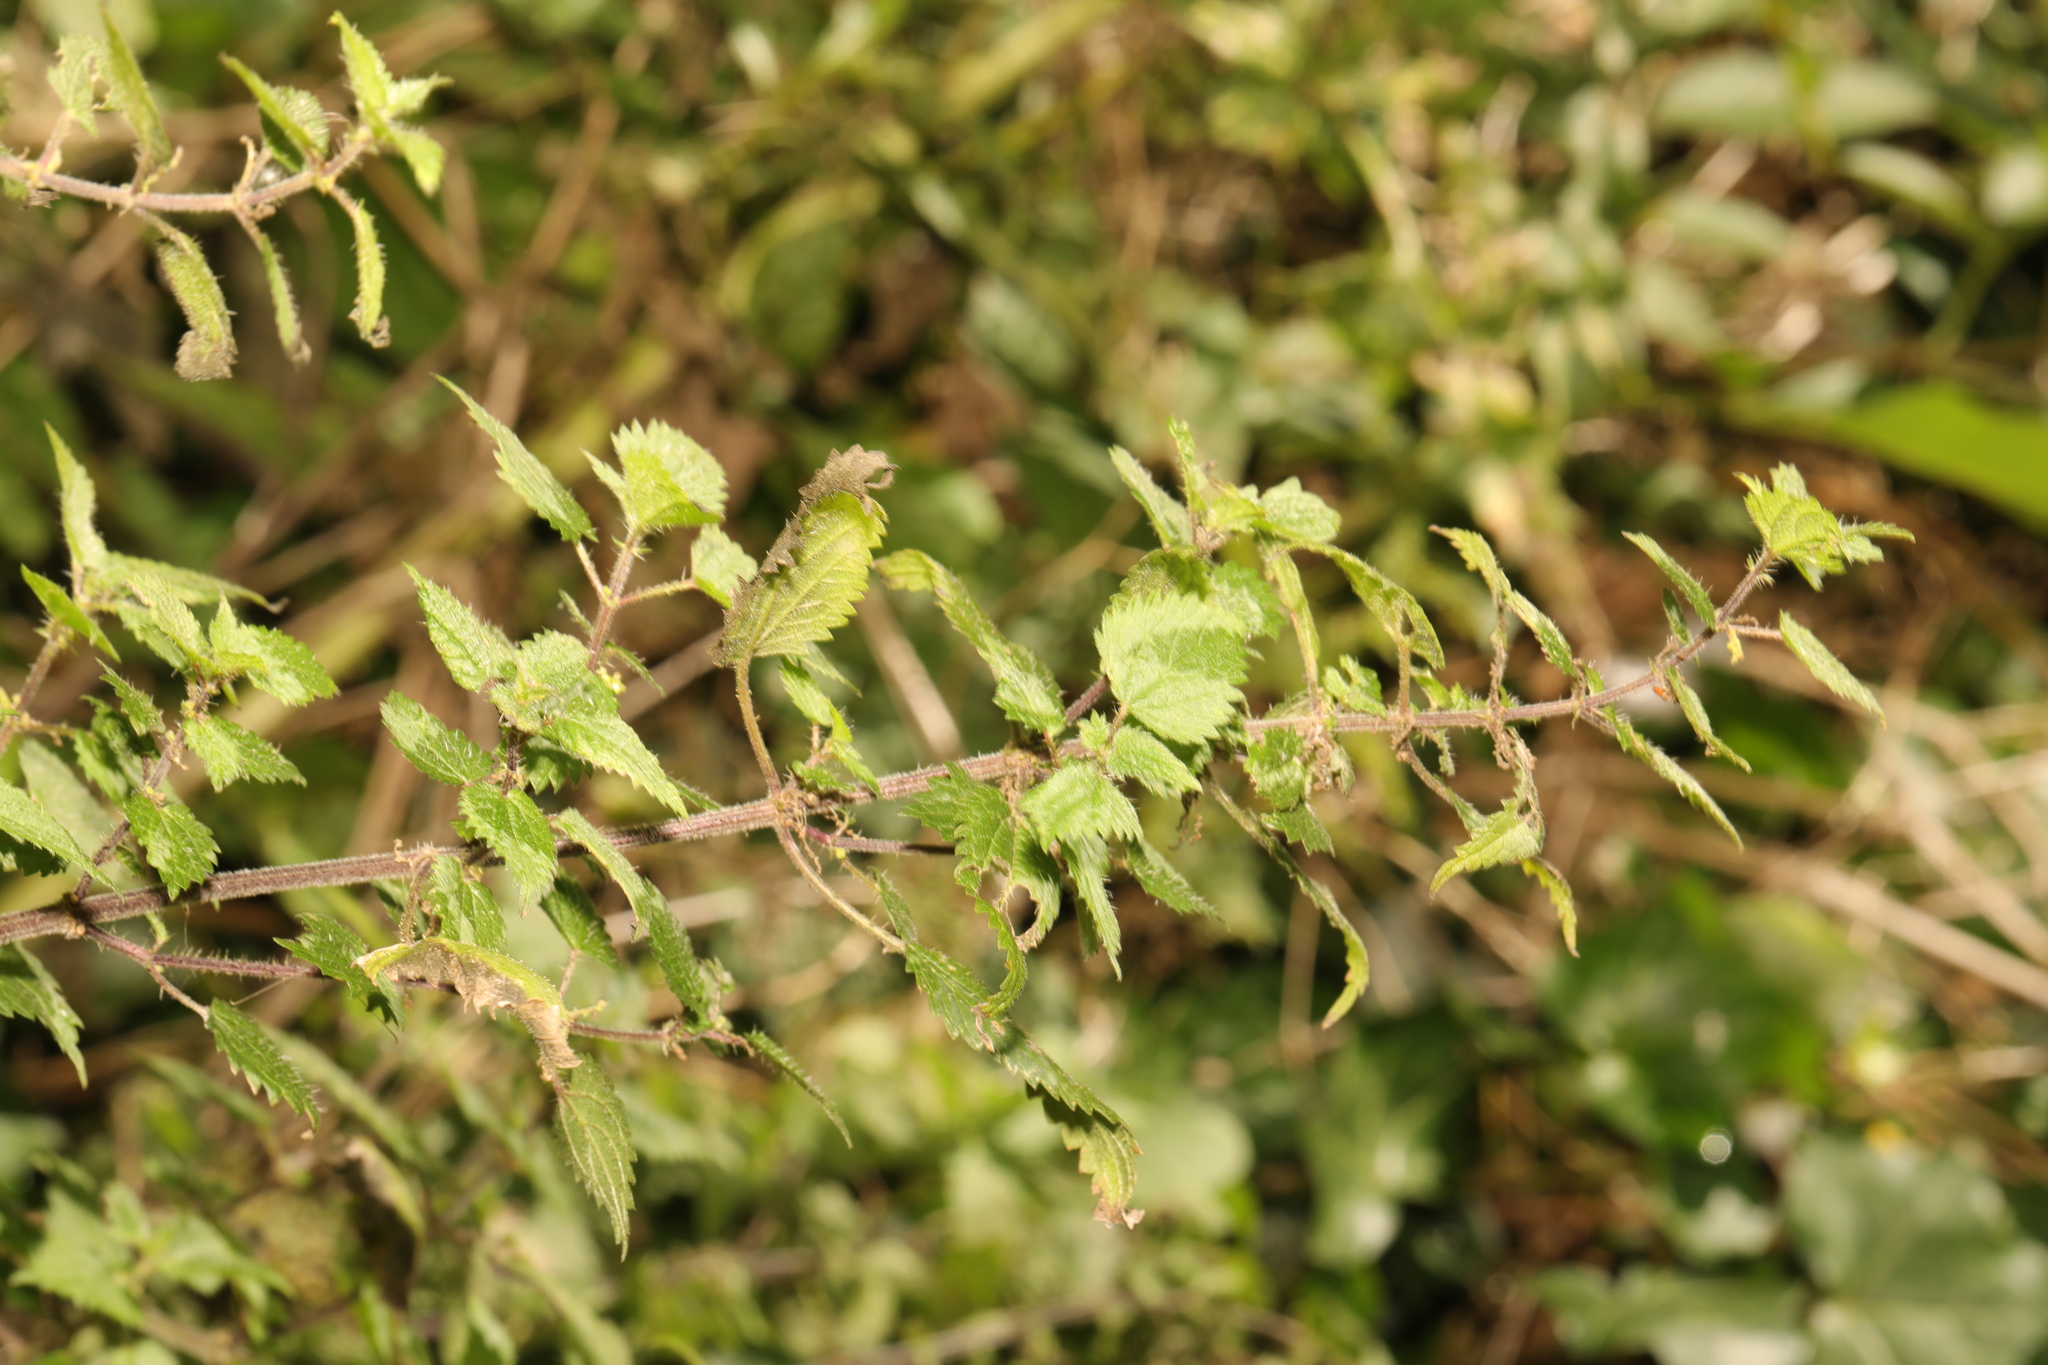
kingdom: Plantae
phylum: Tracheophyta
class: Magnoliopsida
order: Rosales
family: Urticaceae
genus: Urtica
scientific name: Urtica dioica
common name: Common nettle
